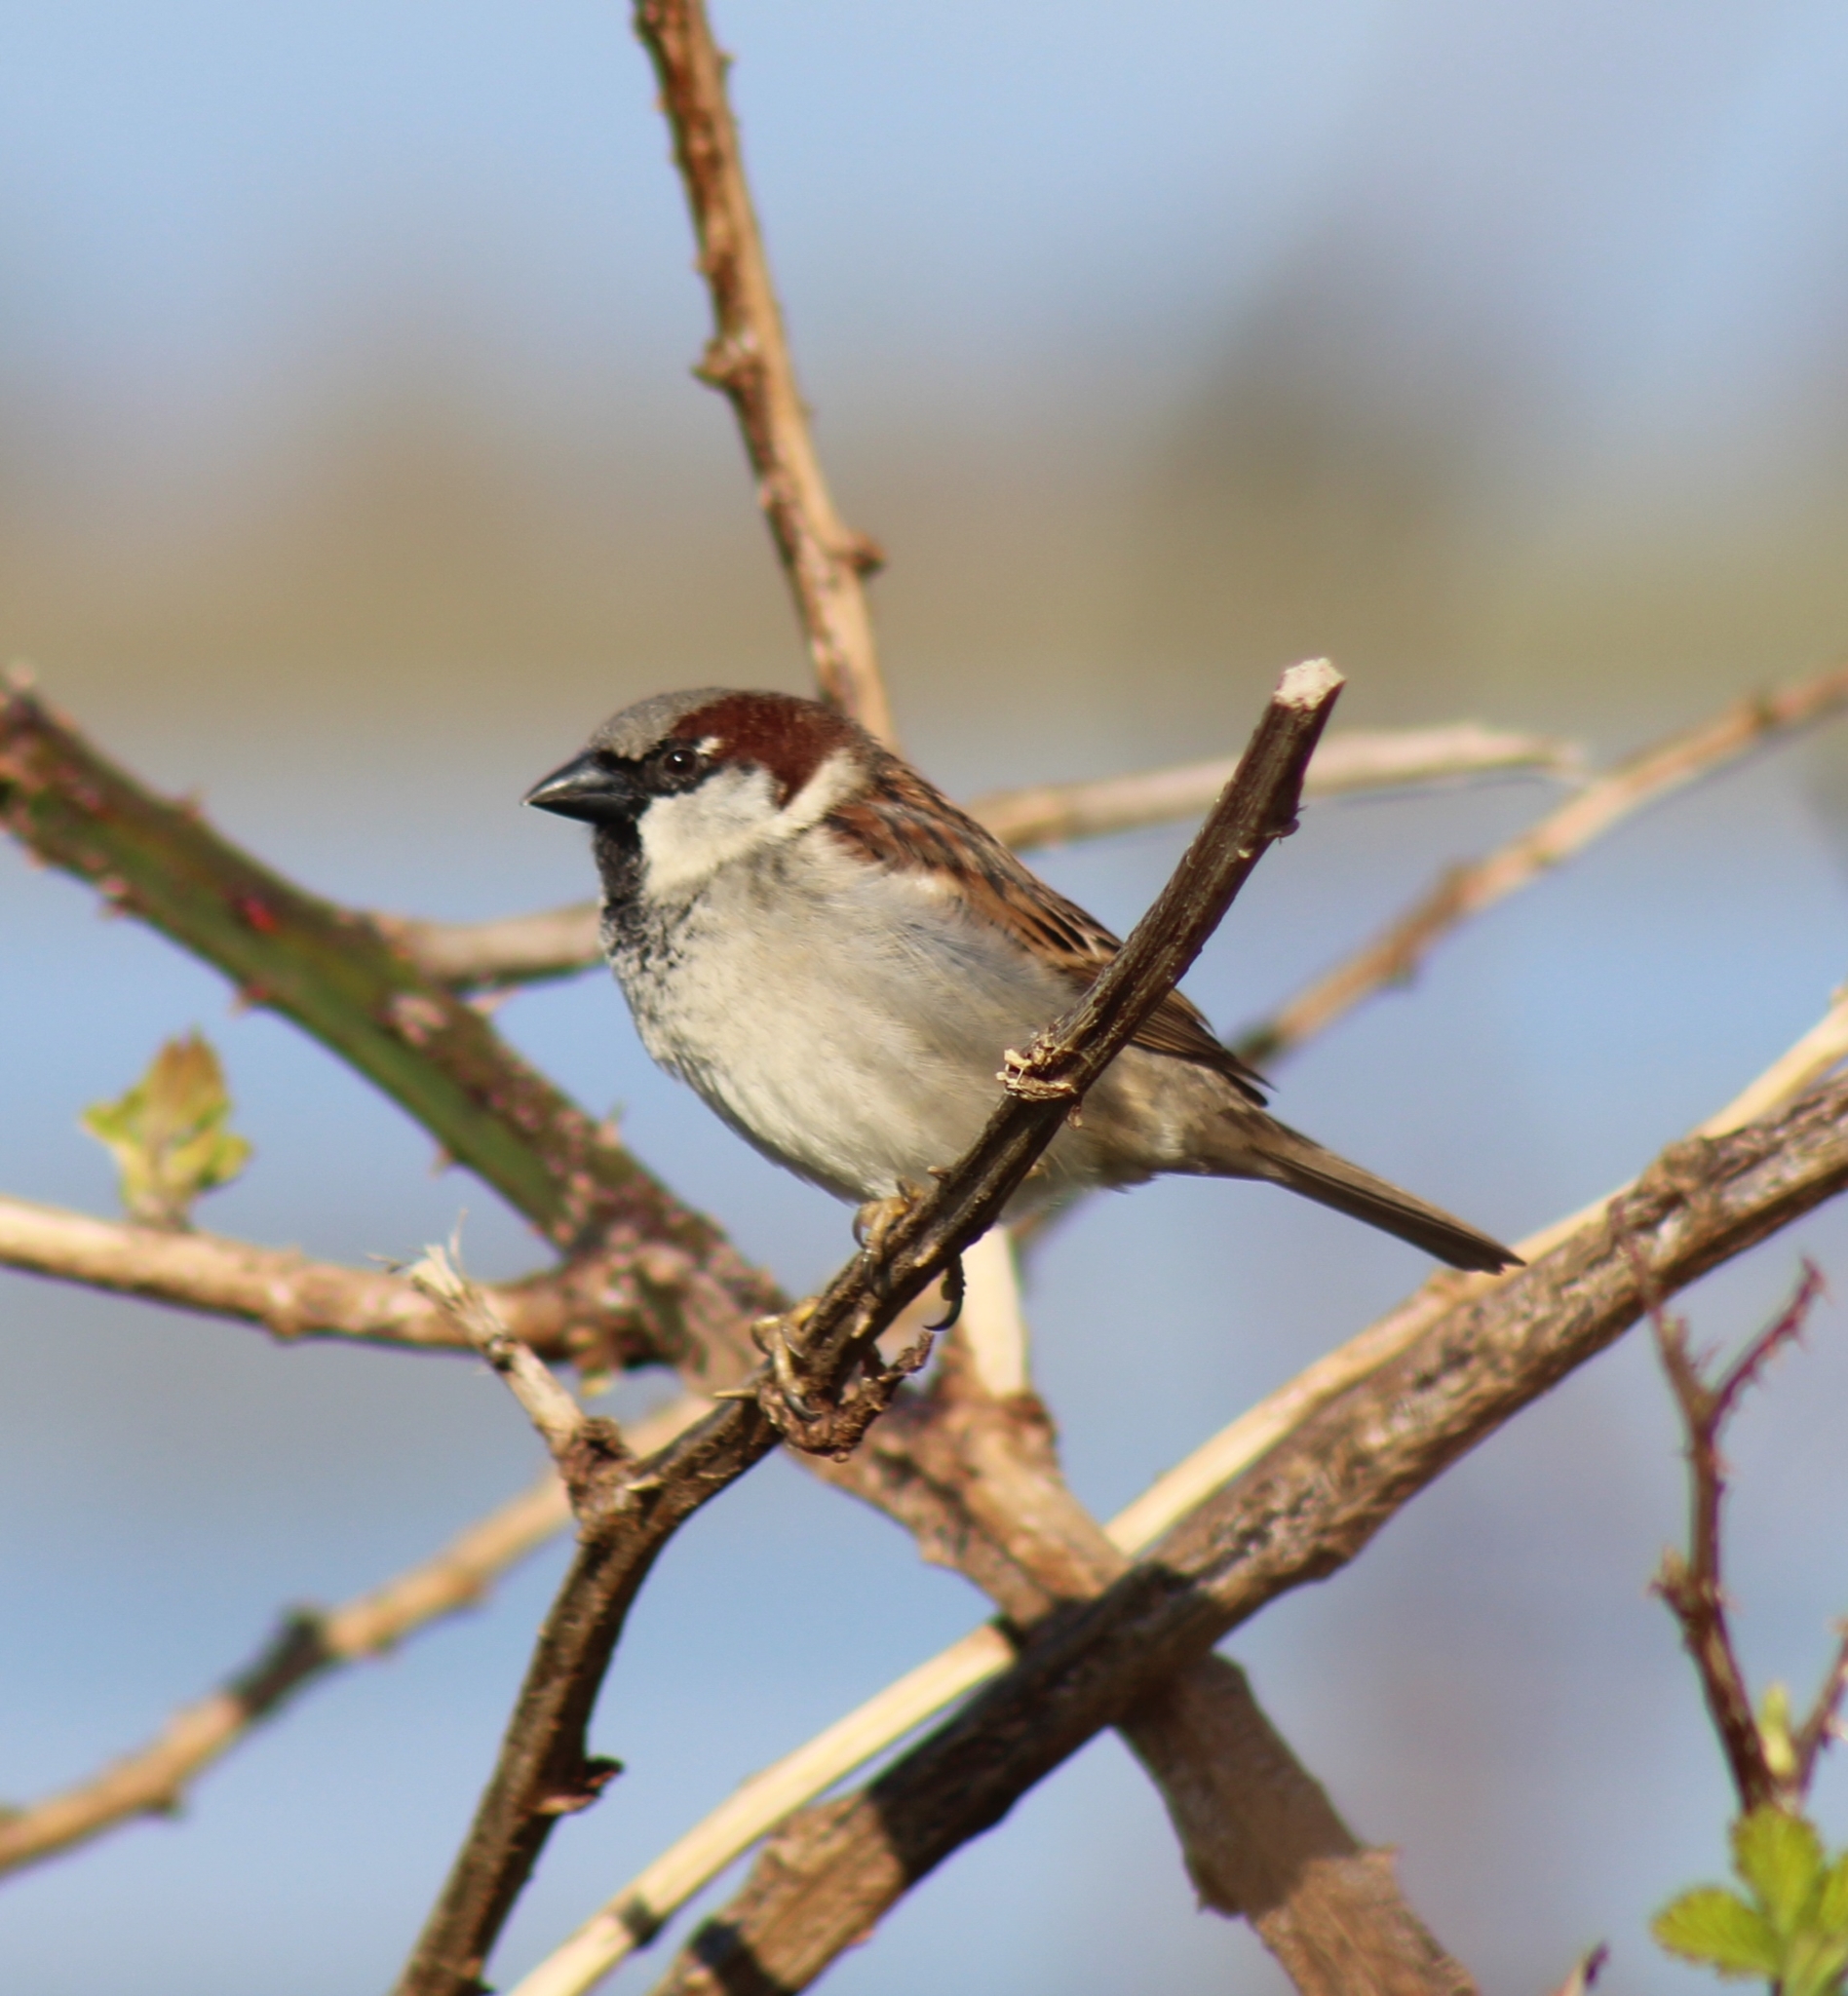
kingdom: Animalia
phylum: Chordata
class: Aves
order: Passeriformes
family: Passeridae
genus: Passer
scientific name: Passer domesticus
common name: House sparrow
